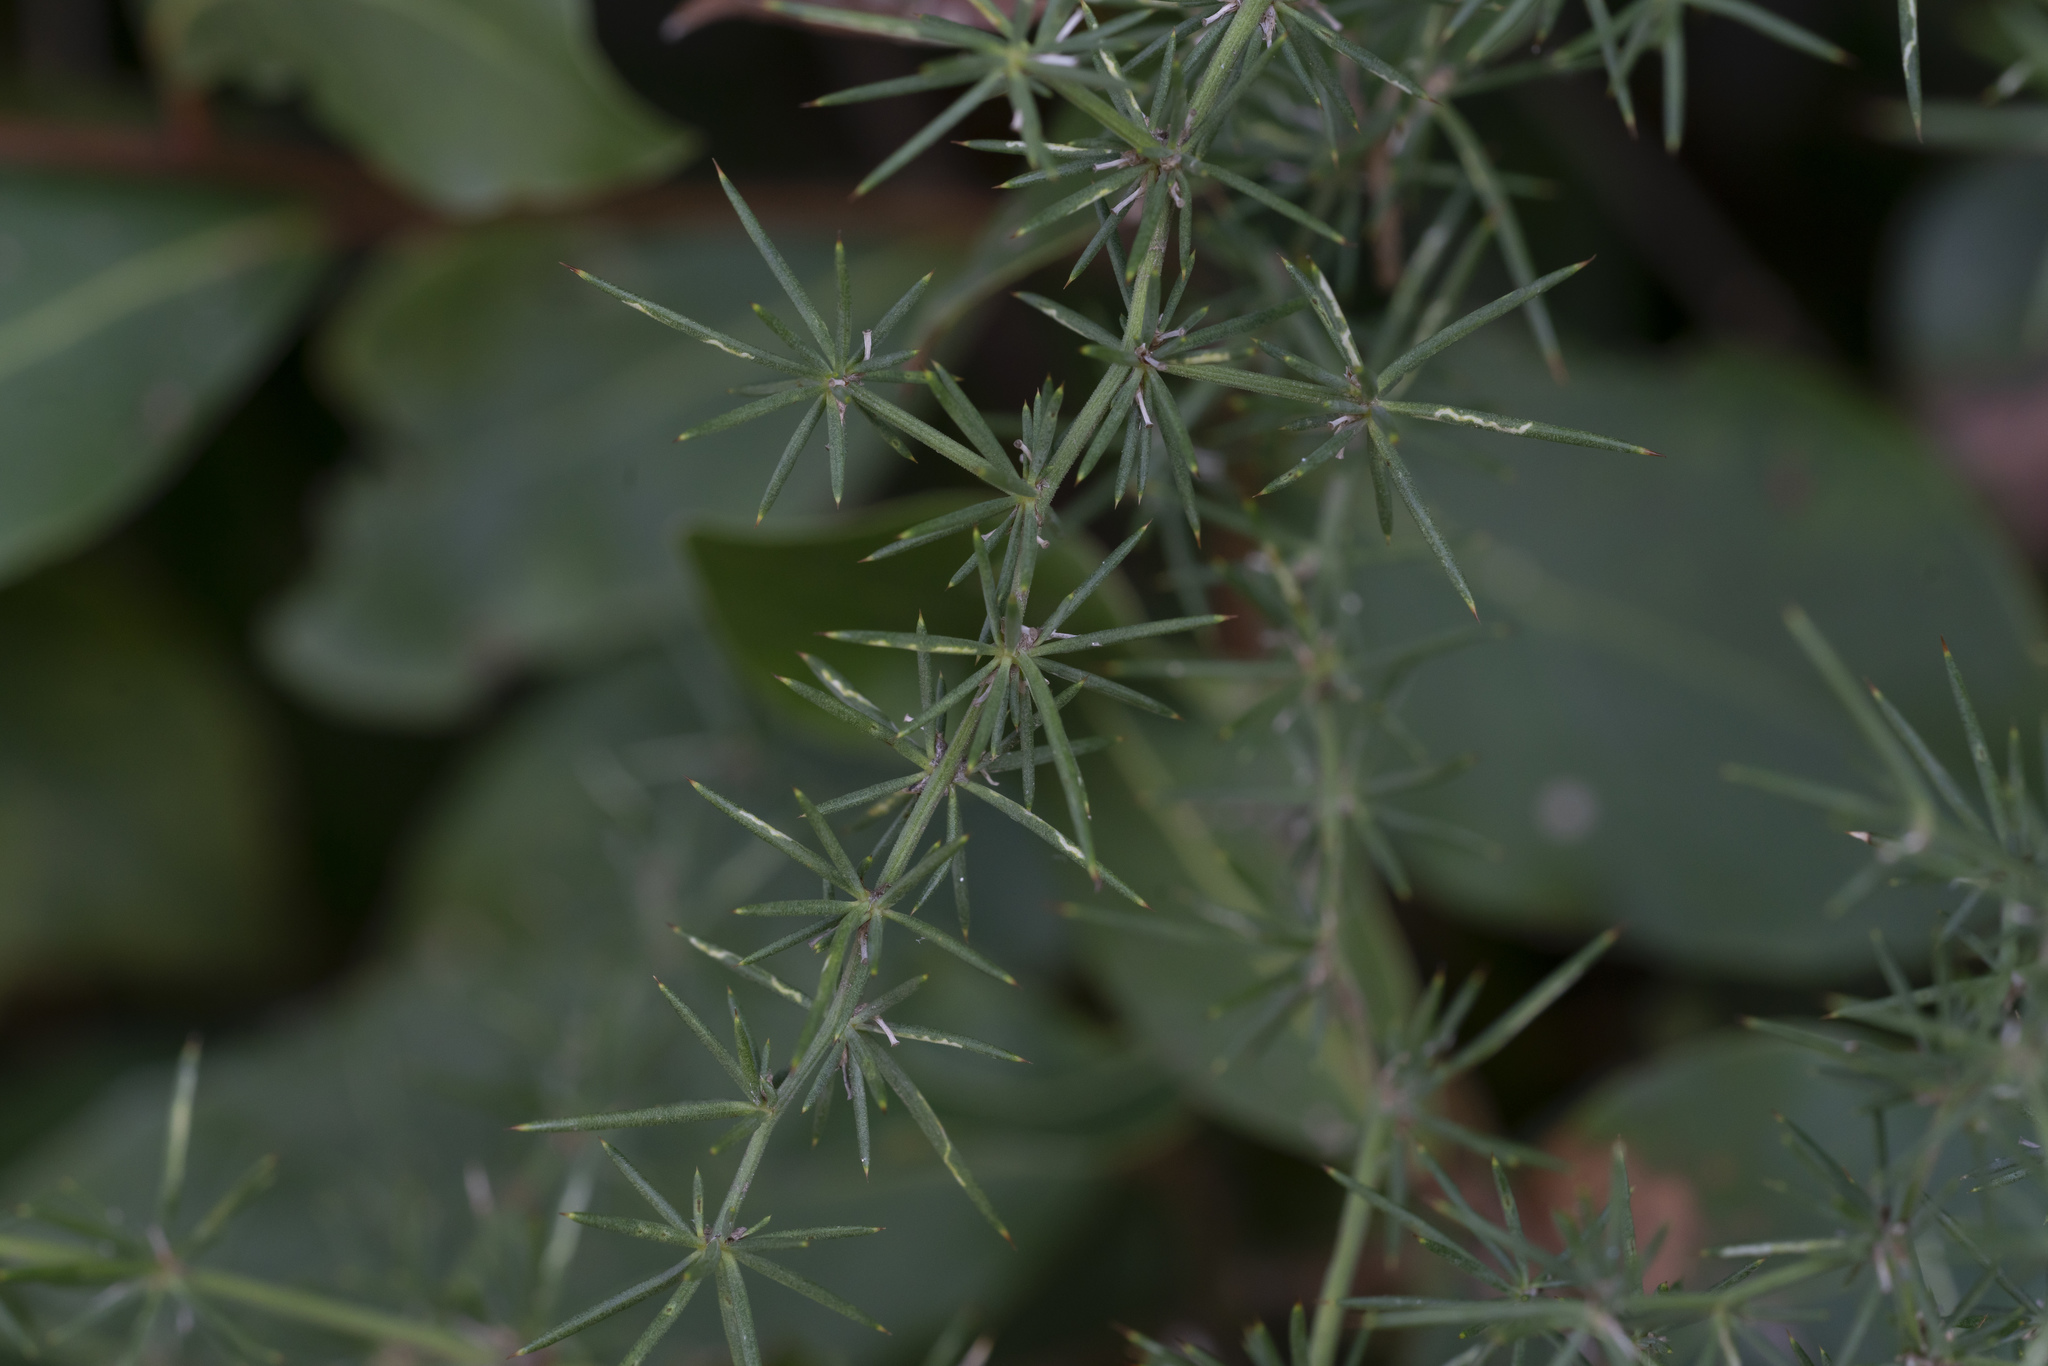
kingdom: Plantae
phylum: Tracheophyta
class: Liliopsida
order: Asparagales
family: Asparagaceae
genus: Asparagus
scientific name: Asparagus aphyllus
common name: Mediterranean asparagus
